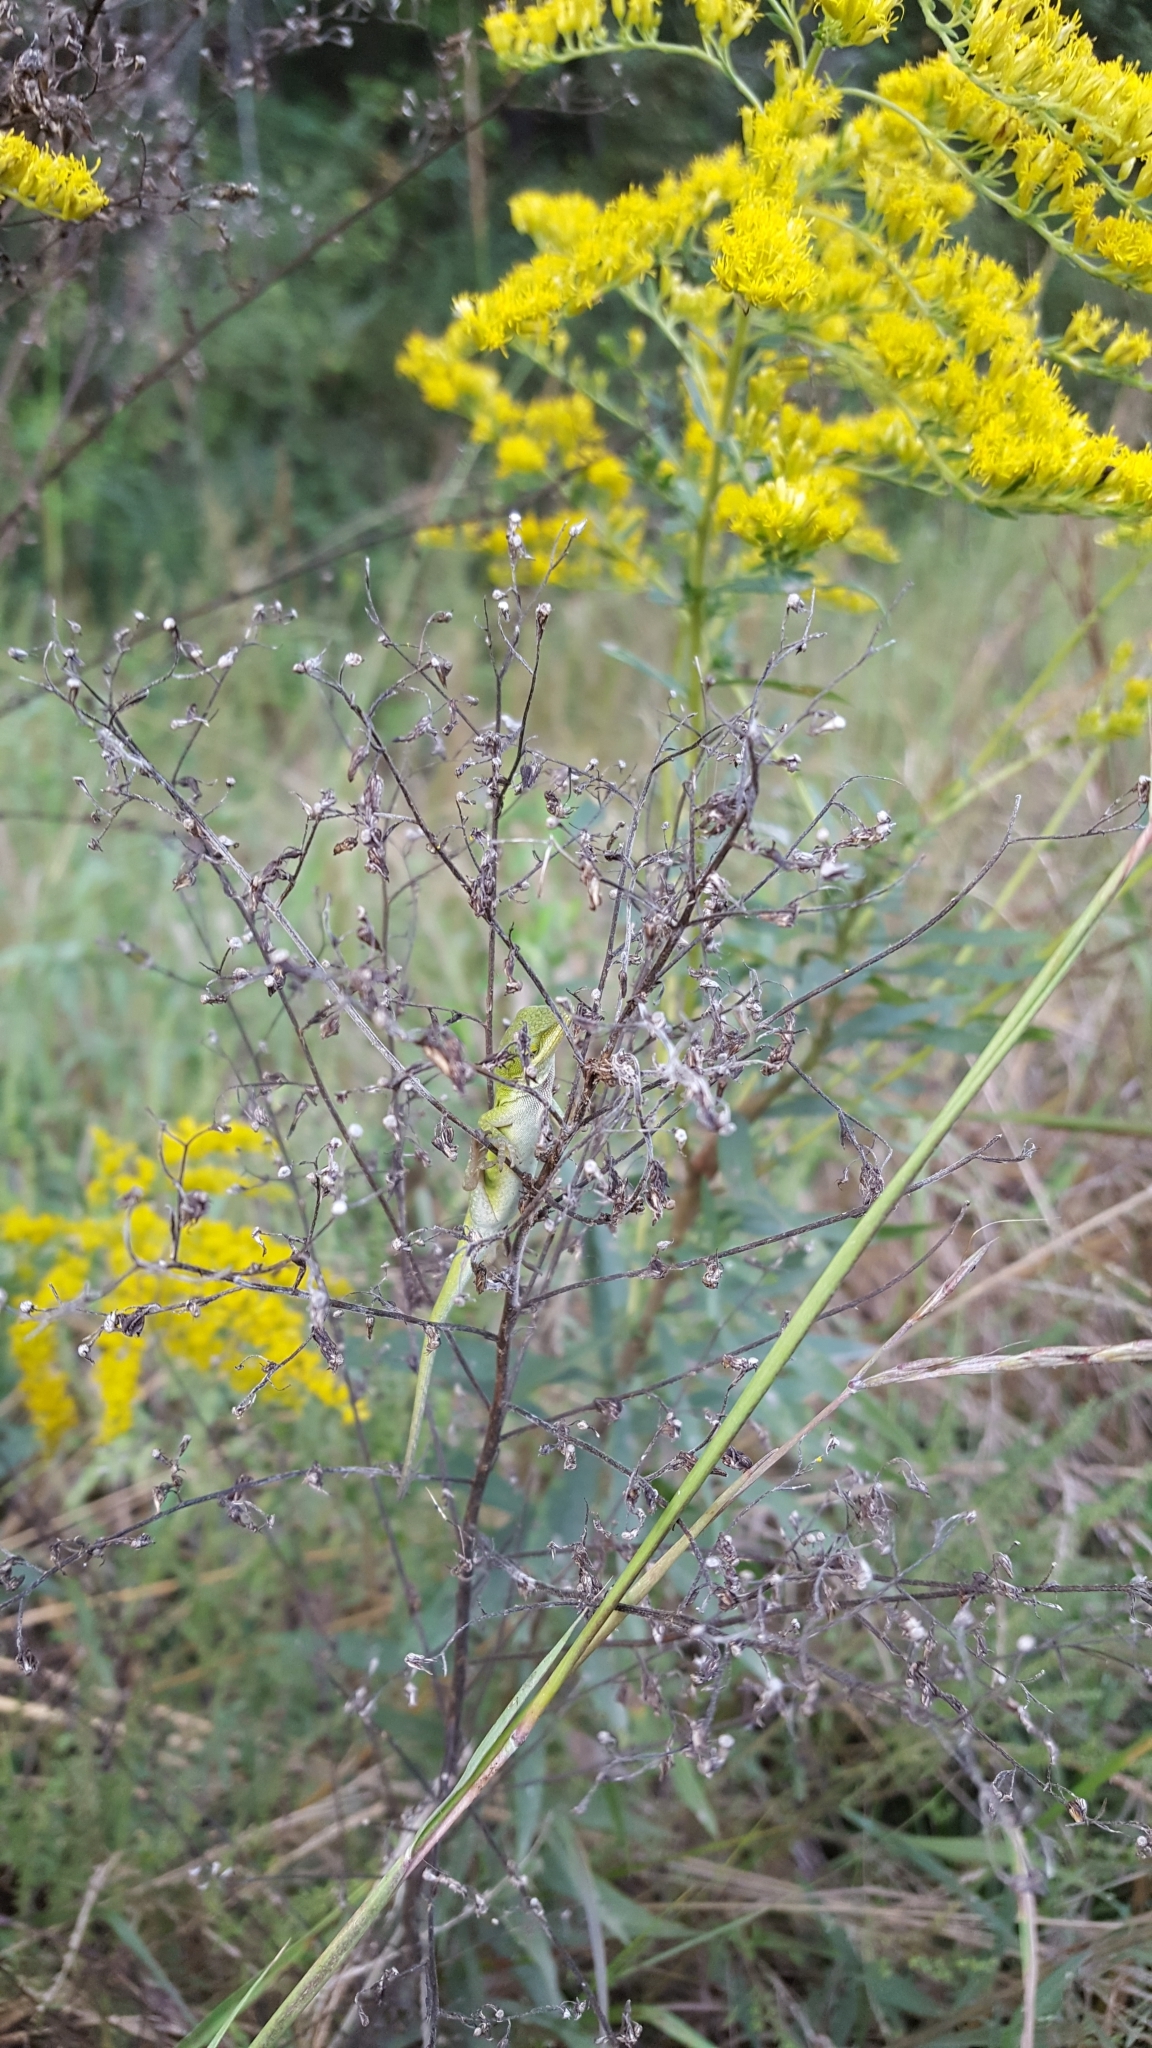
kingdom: Animalia
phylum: Chordata
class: Squamata
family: Dactyloidae
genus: Anolis
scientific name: Anolis carolinensis
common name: Green anole
